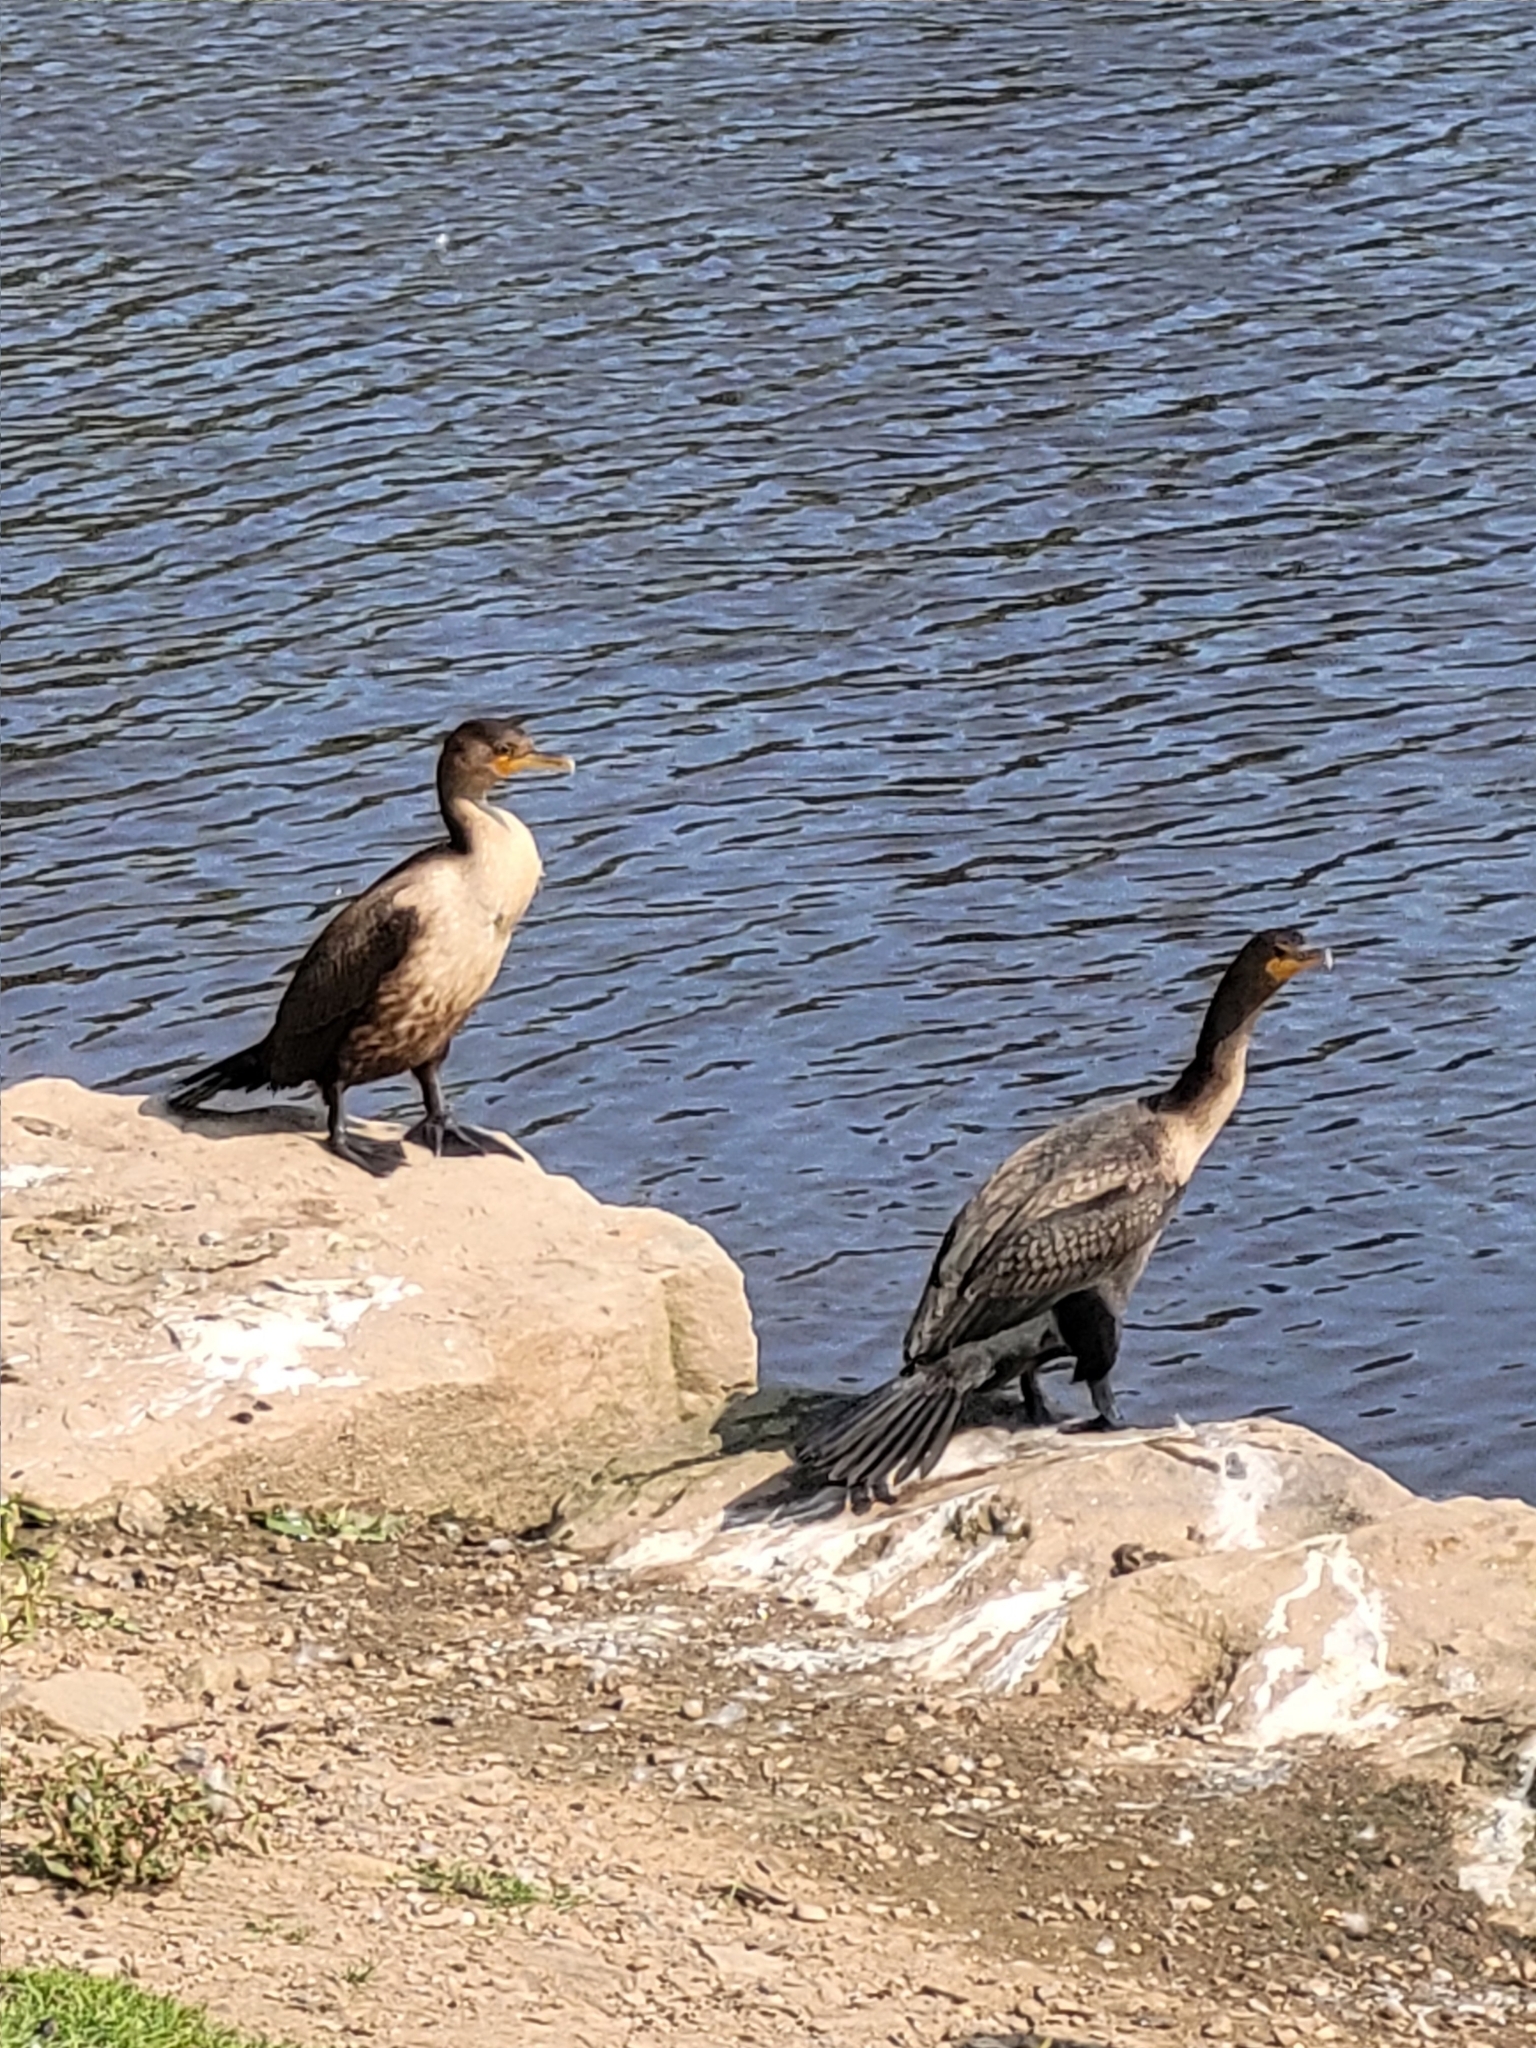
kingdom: Animalia
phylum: Chordata
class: Aves
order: Suliformes
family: Phalacrocoracidae
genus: Phalacrocorax
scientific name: Phalacrocorax auritus
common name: Double-crested cormorant
